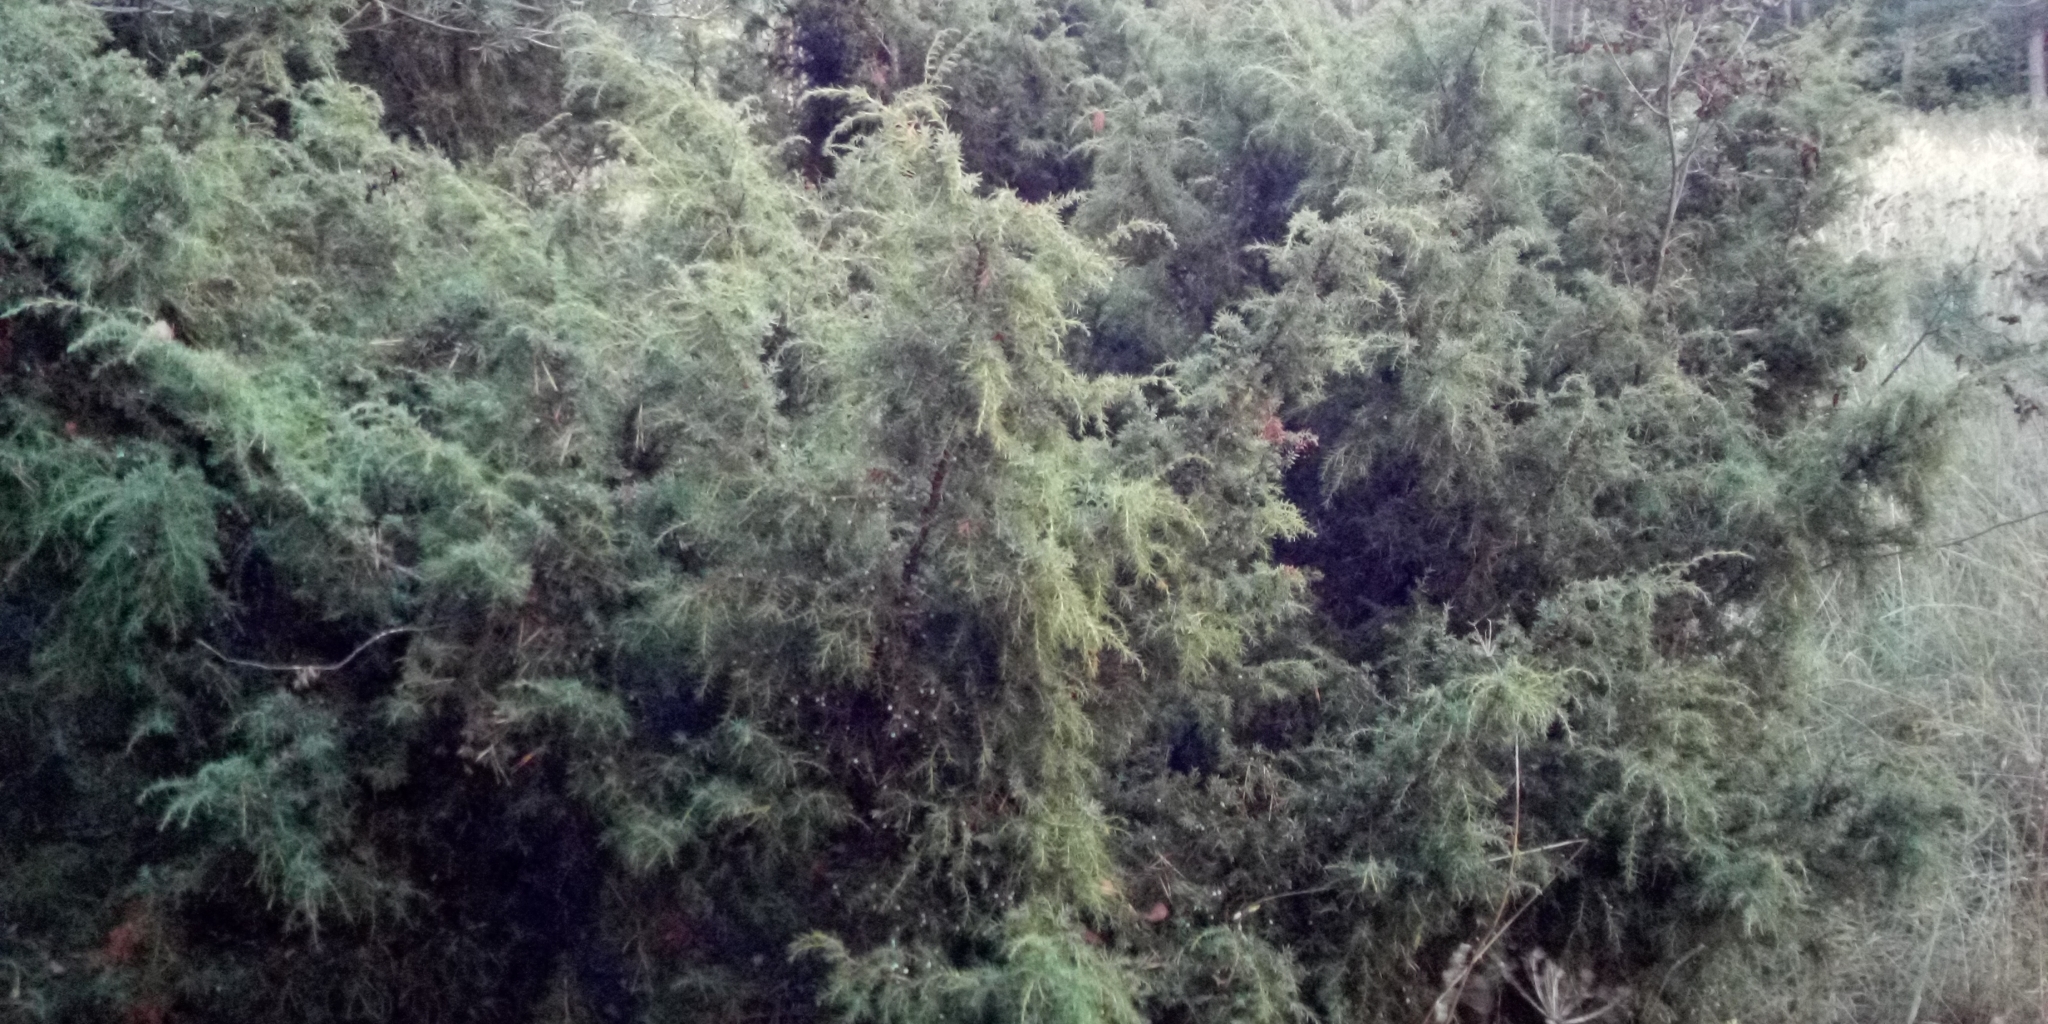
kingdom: Plantae
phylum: Tracheophyta
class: Pinopsida
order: Pinales
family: Cupressaceae
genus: Juniperus
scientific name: Juniperus communis
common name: Common juniper
